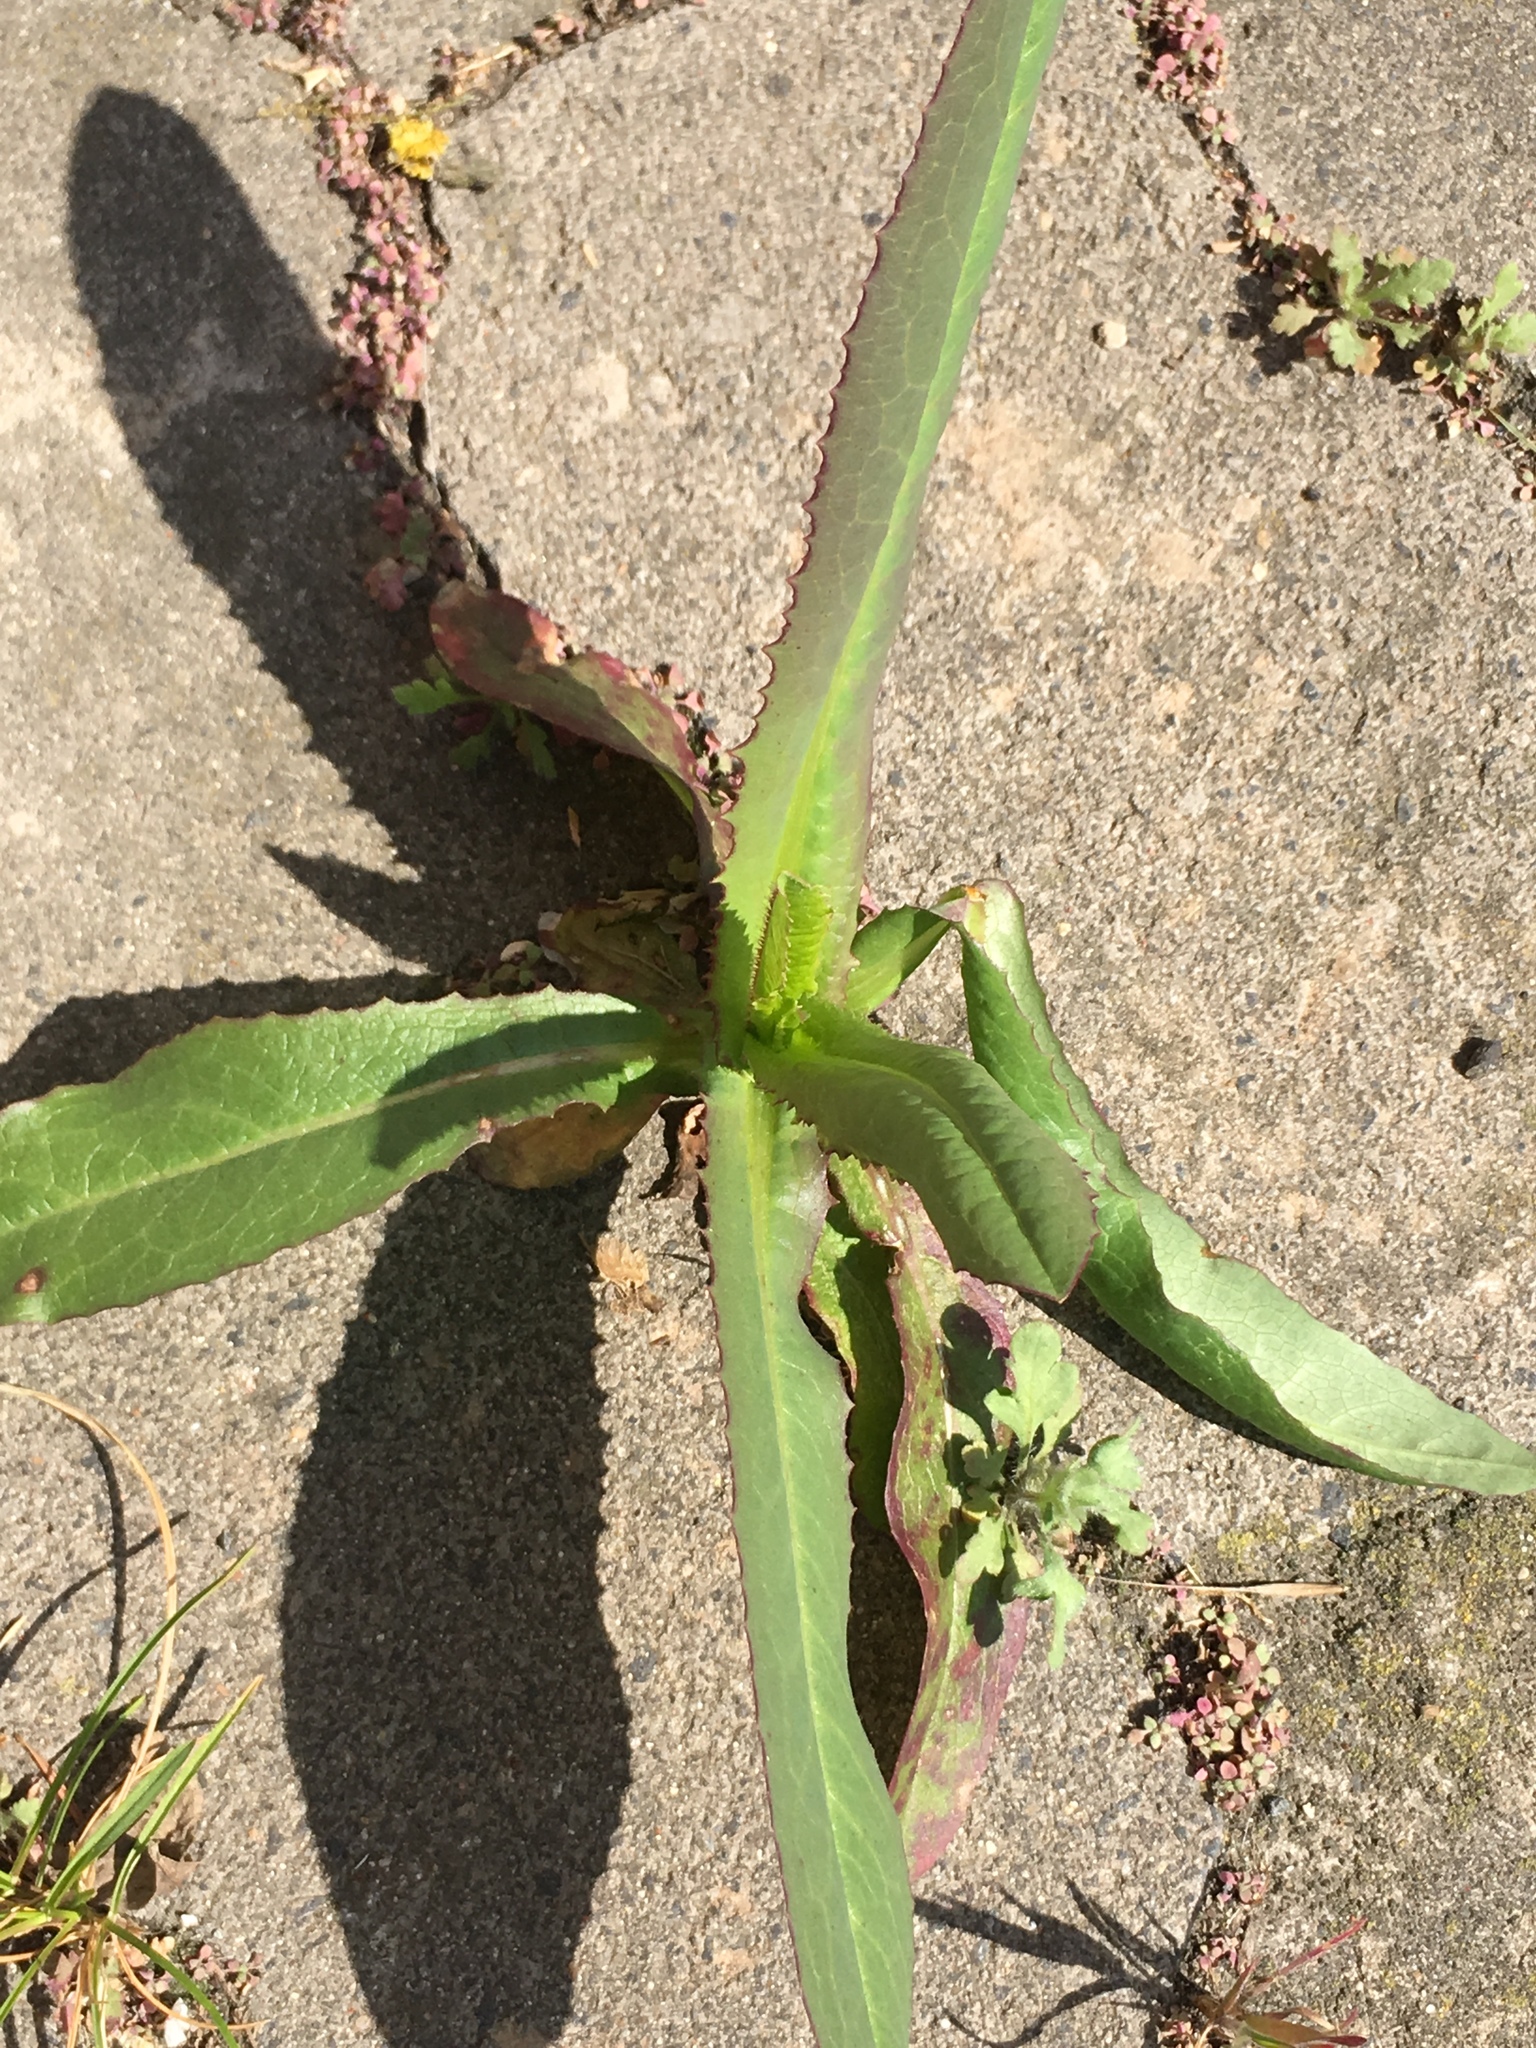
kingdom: Plantae
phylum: Tracheophyta
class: Magnoliopsida
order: Asterales
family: Asteraceae
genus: Lactuca
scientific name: Lactuca serriola
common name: Prickly lettuce
